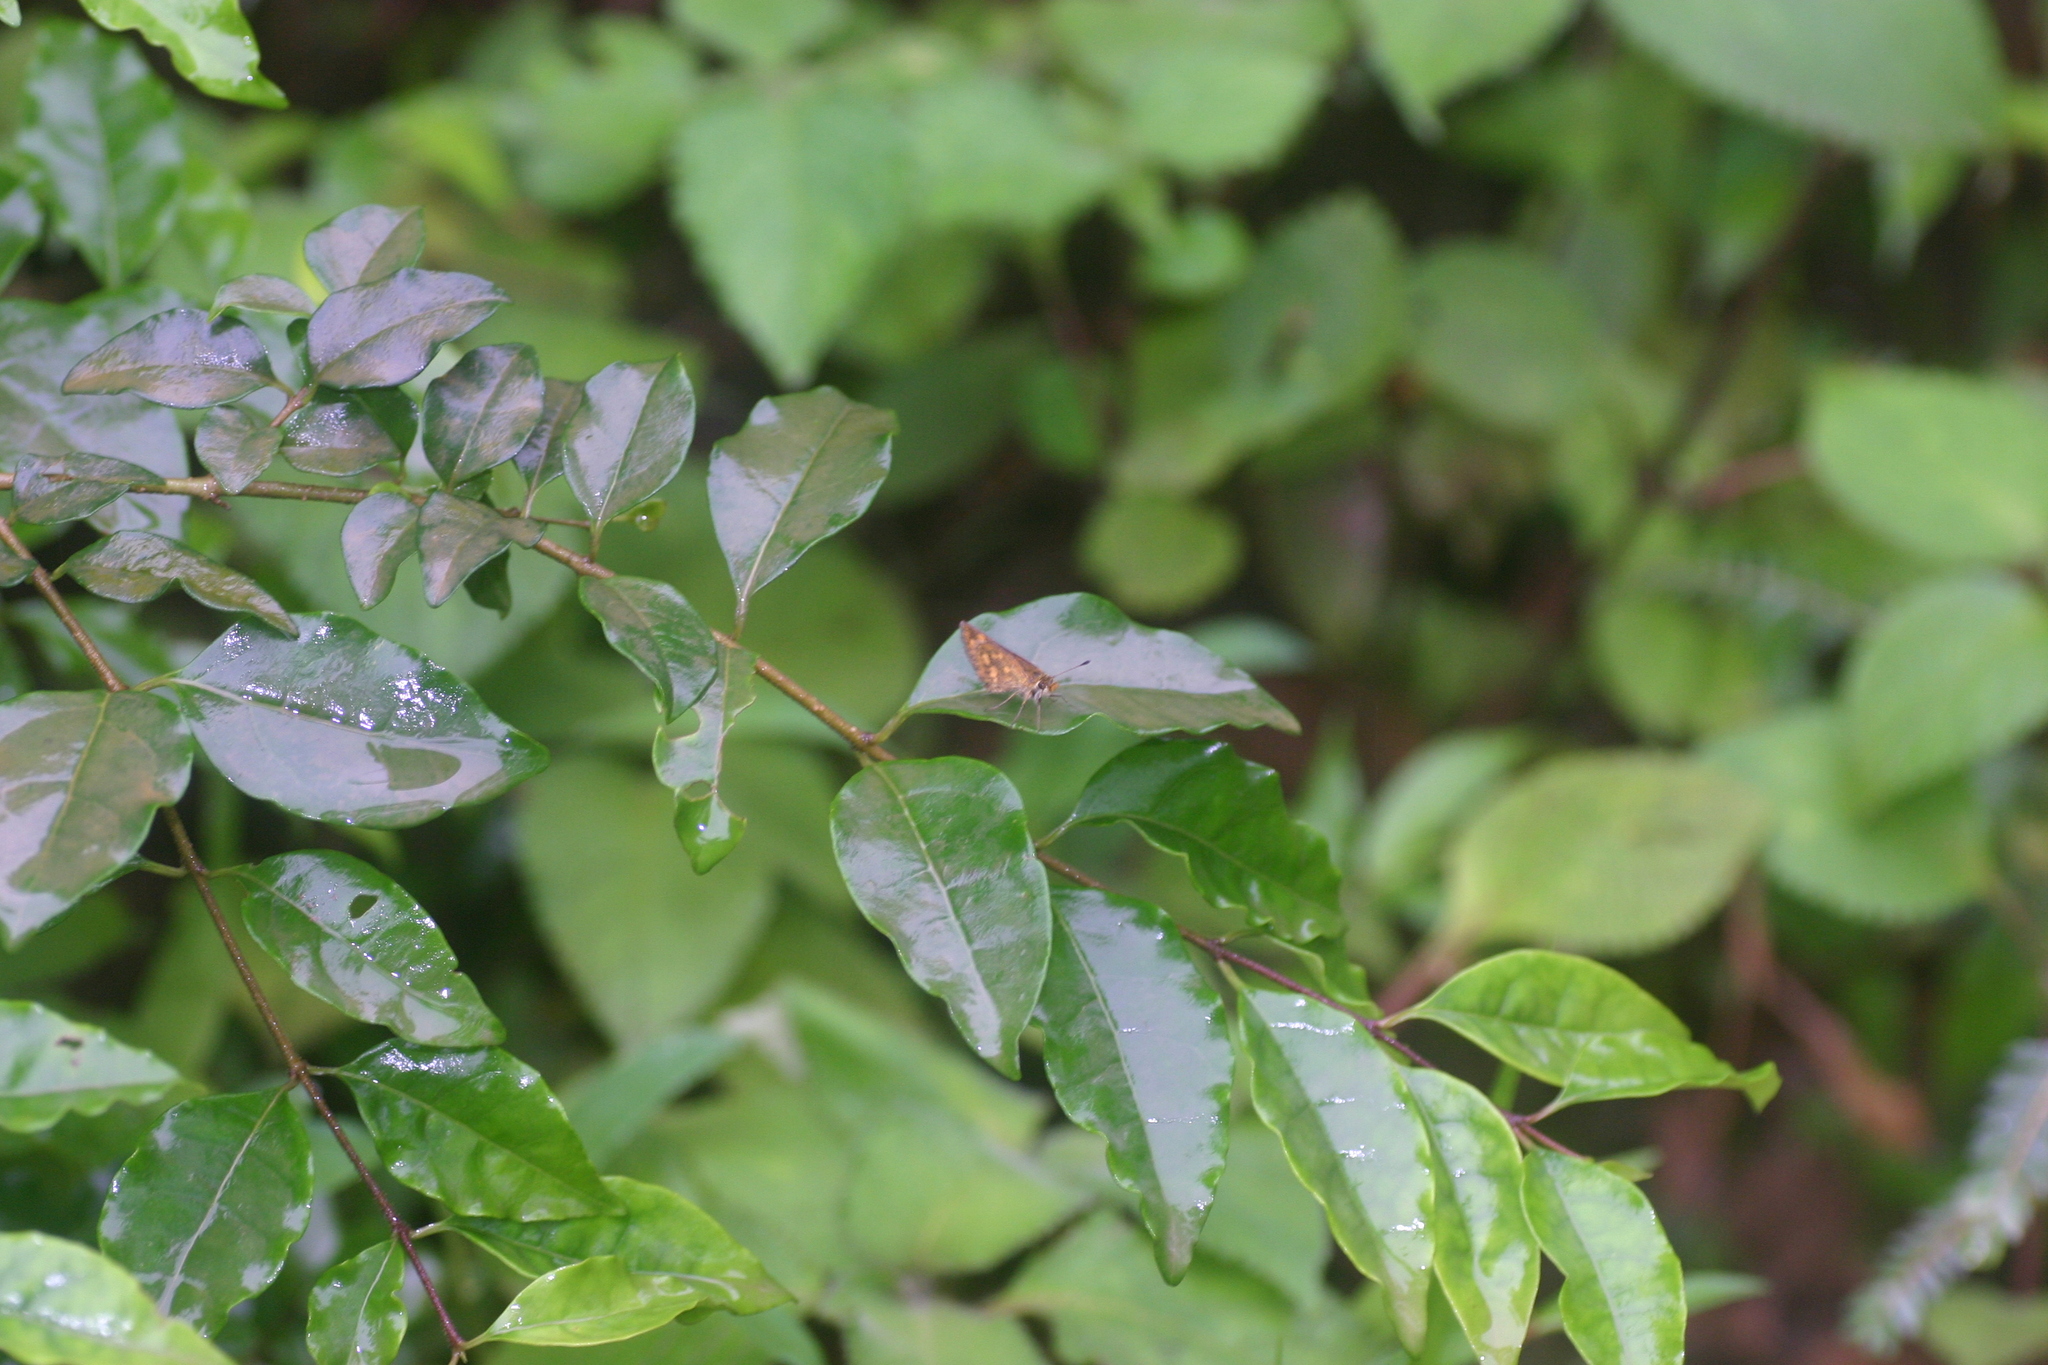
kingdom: Animalia
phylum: Arthropoda
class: Insecta
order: Lepidoptera
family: Hesperiidae
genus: Baracus
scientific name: Baracus vittatus
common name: Hedge-hopper
